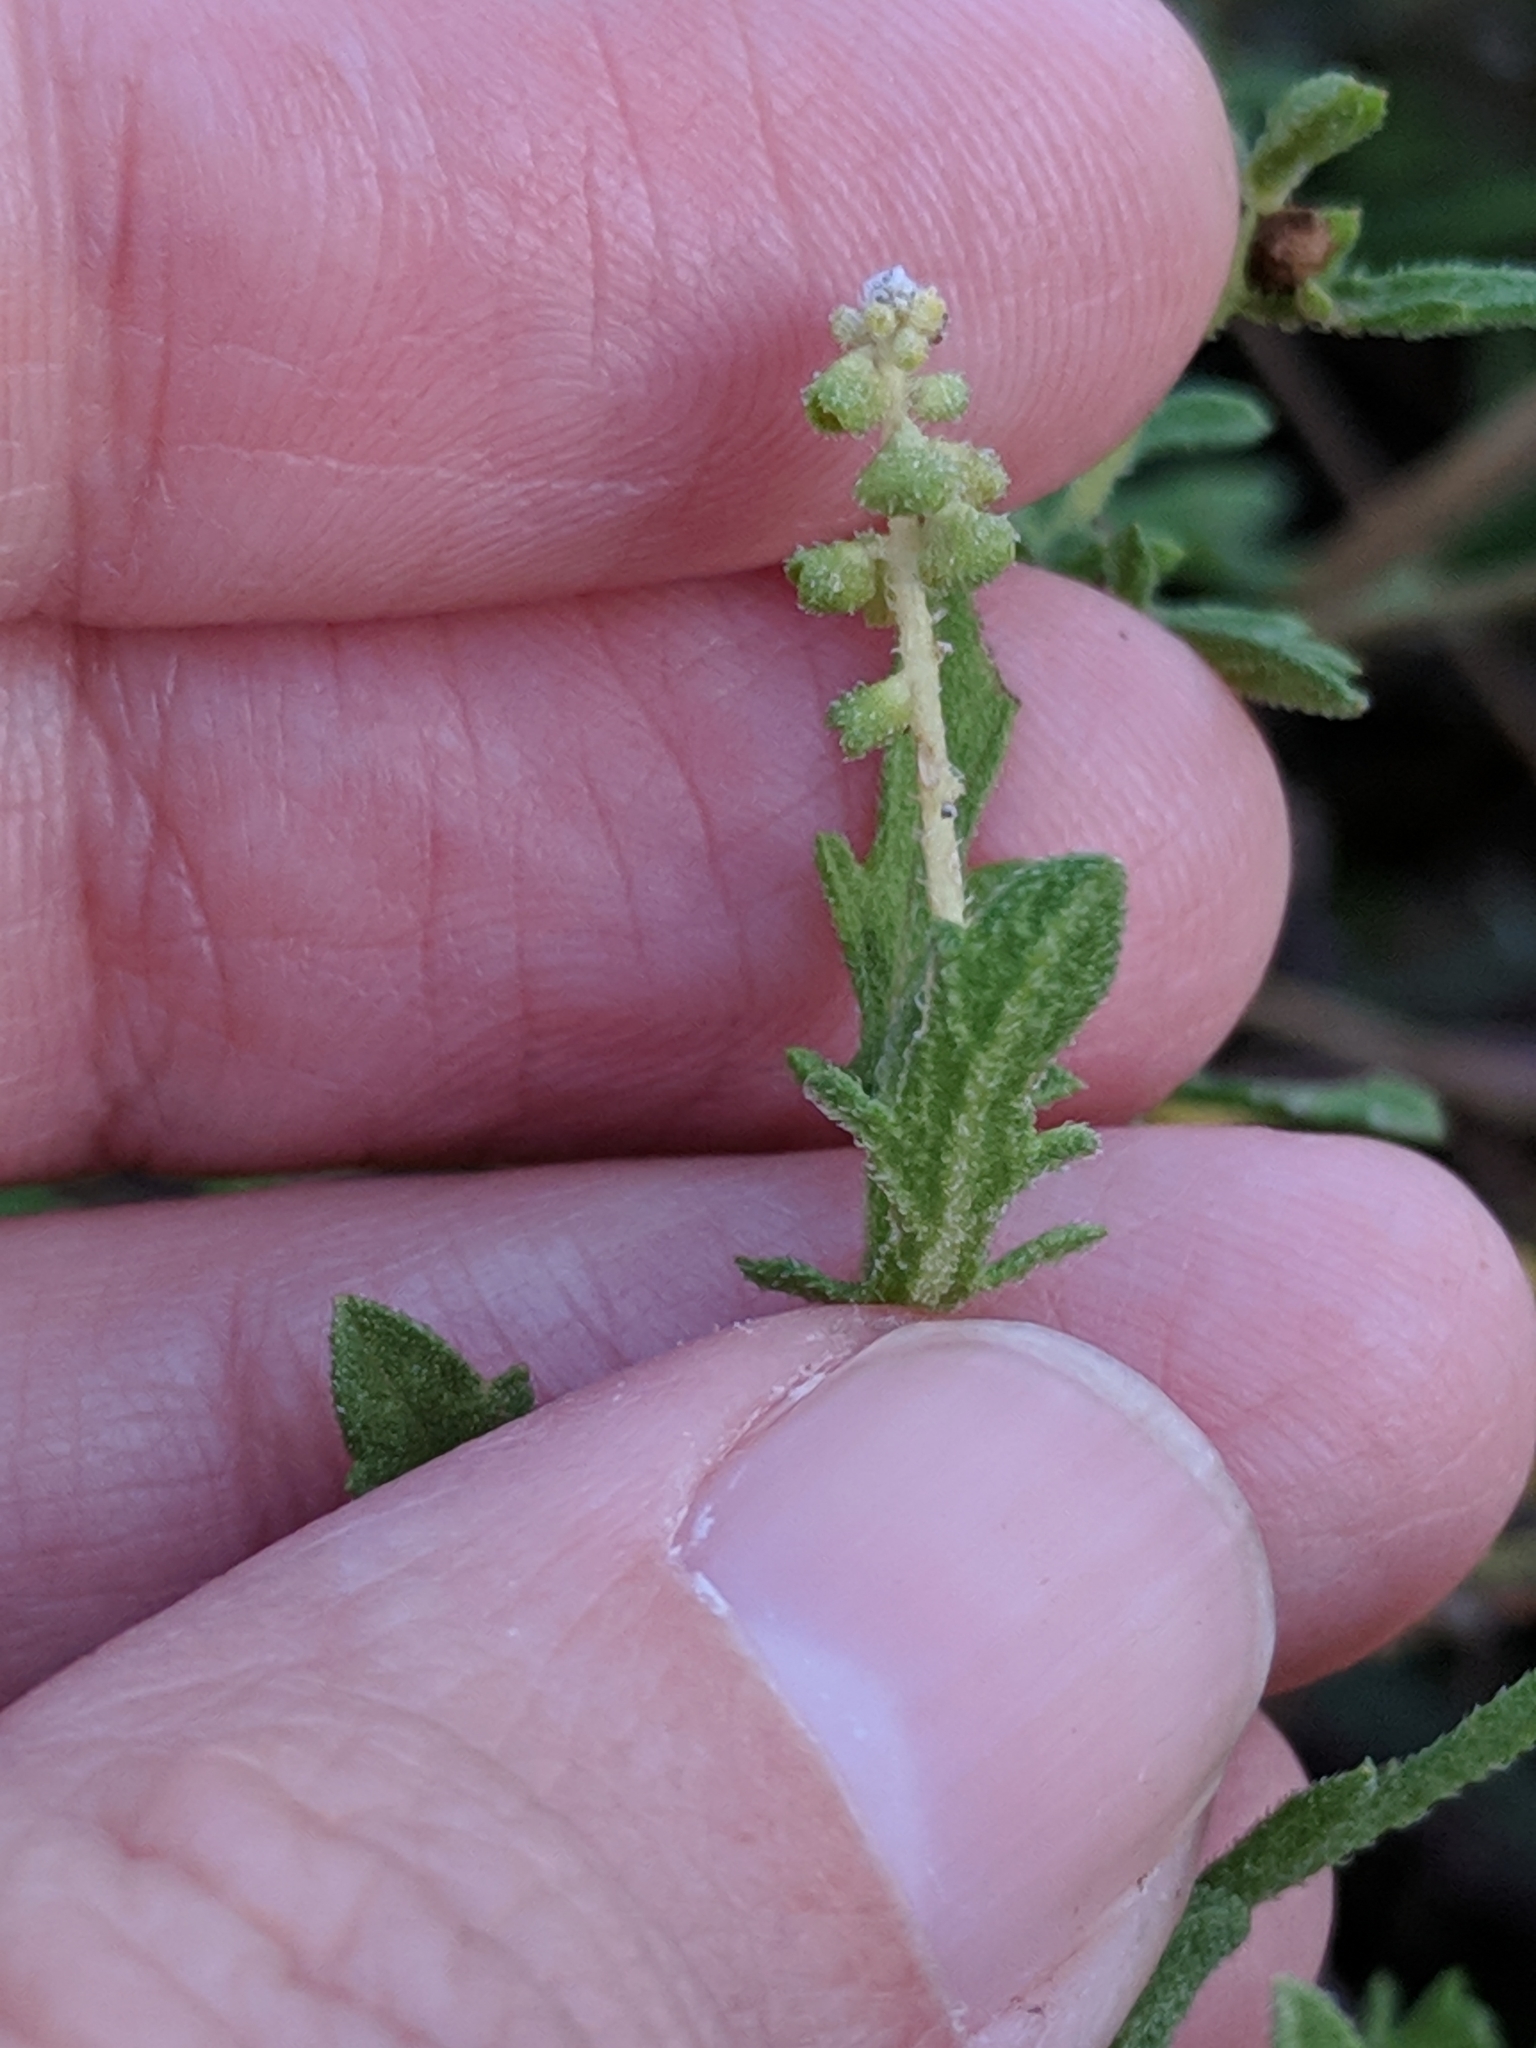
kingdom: Plantae
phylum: Tracheophyta
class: Magnoliopsida
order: Asterales
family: Asteraceae
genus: Ambrosia
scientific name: Ambrosia psilostachya
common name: Perennial ragweed
